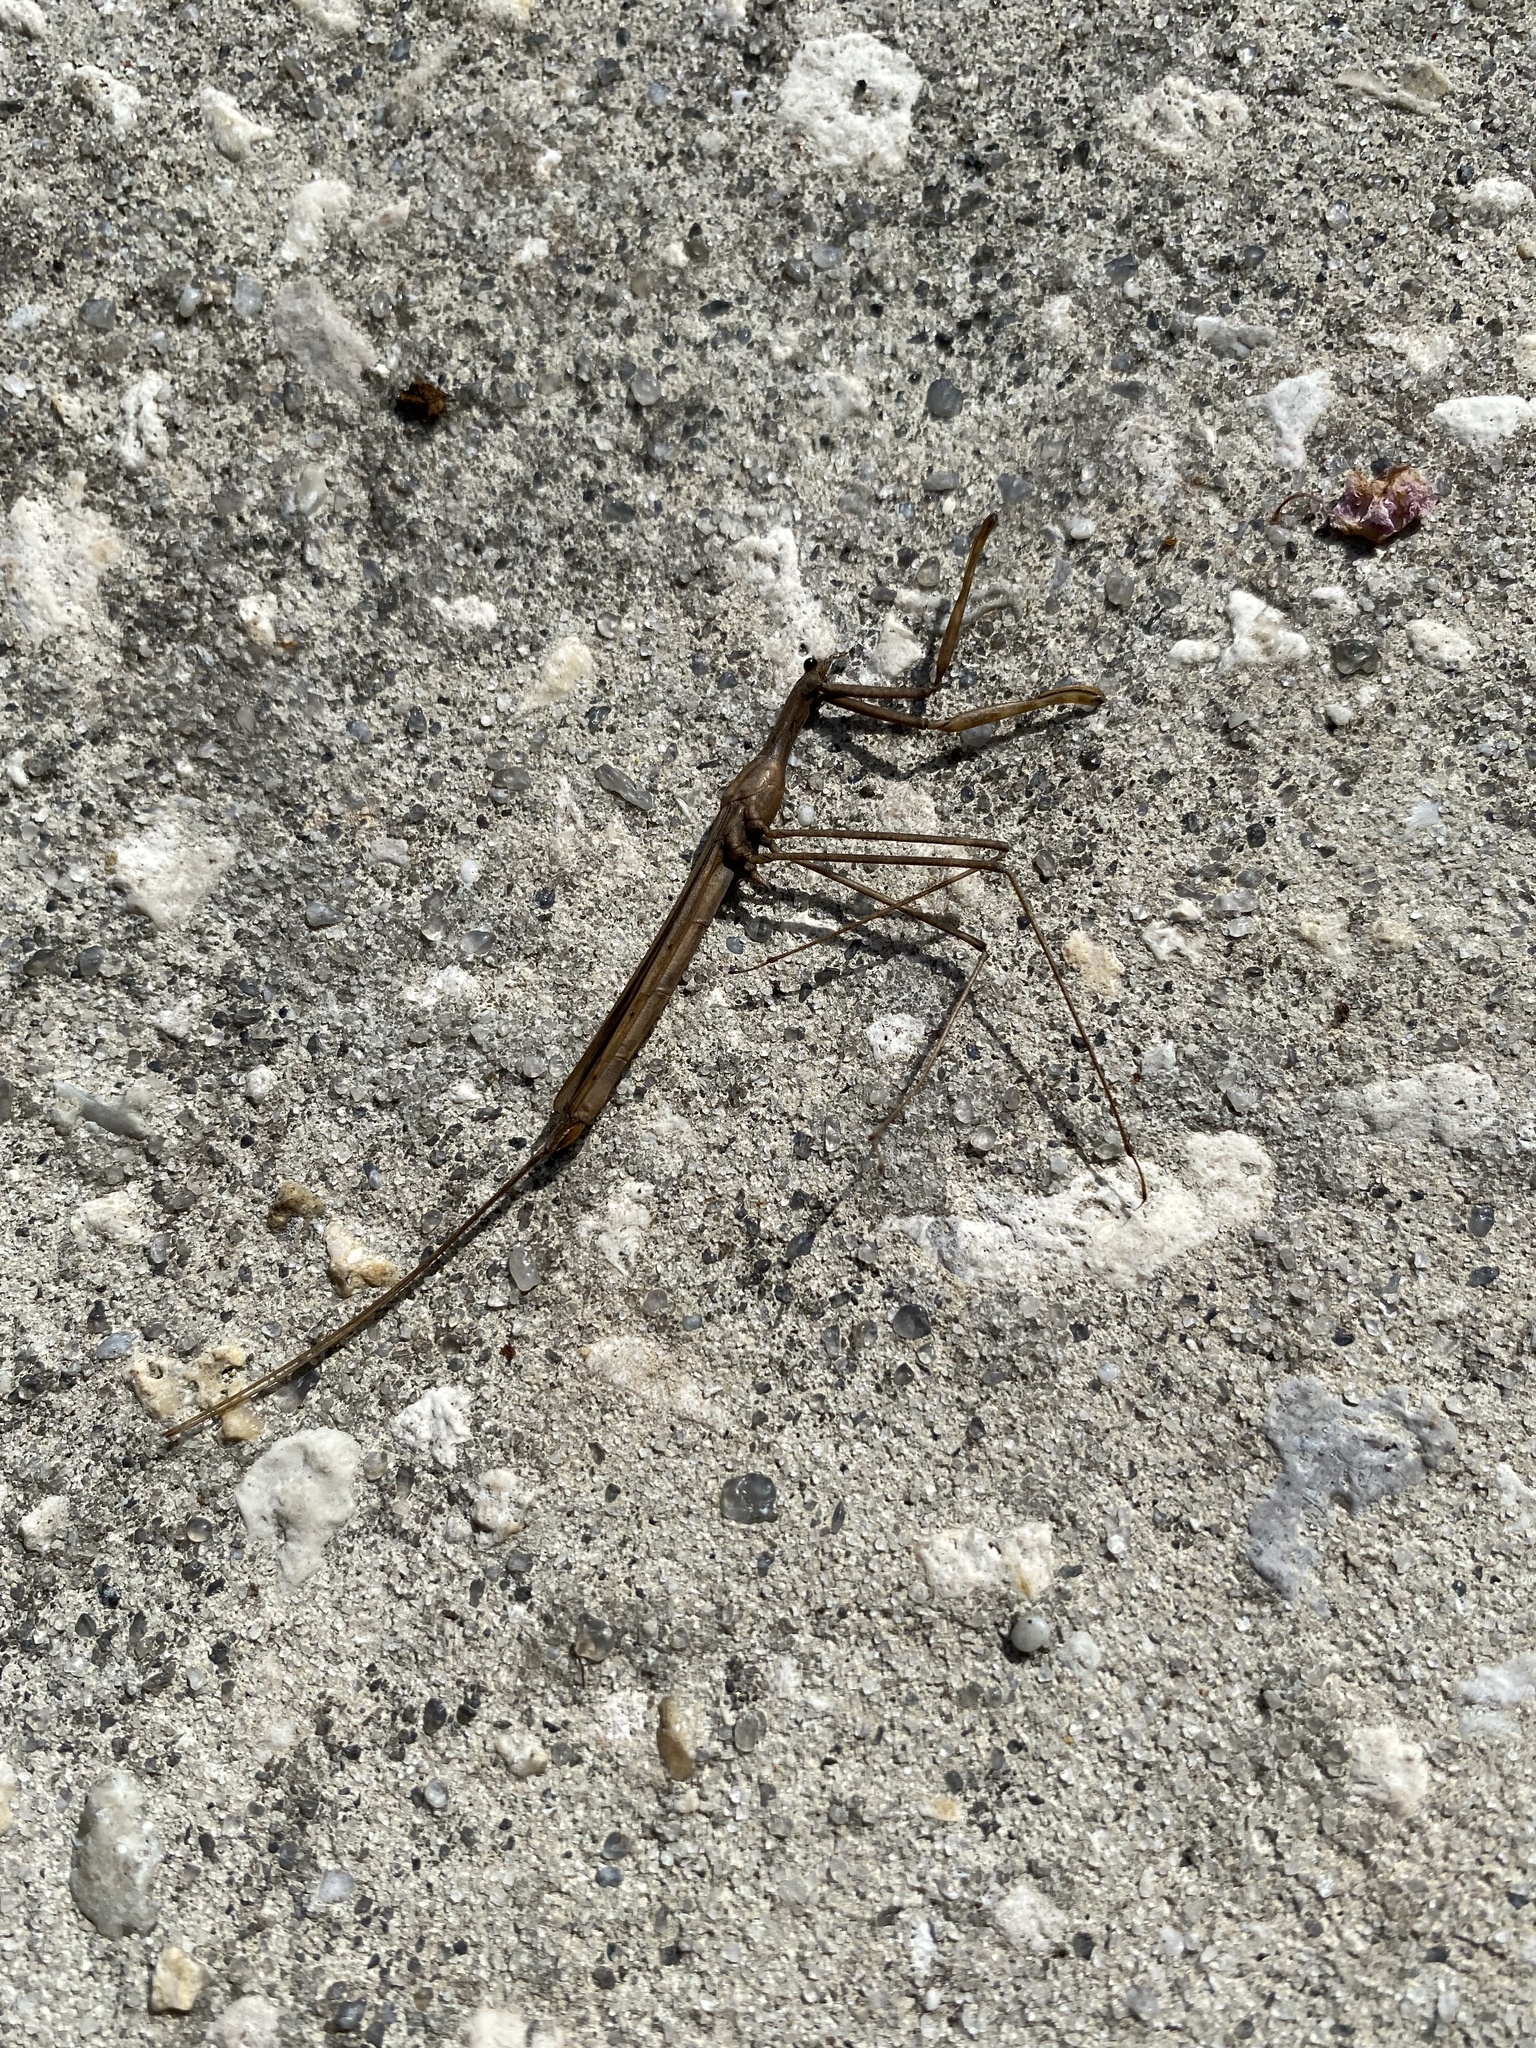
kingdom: Animalia
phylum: Arthropoda
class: Insecta
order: Hemiptera
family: Nepidae
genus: Ranatra
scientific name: Ranatra
